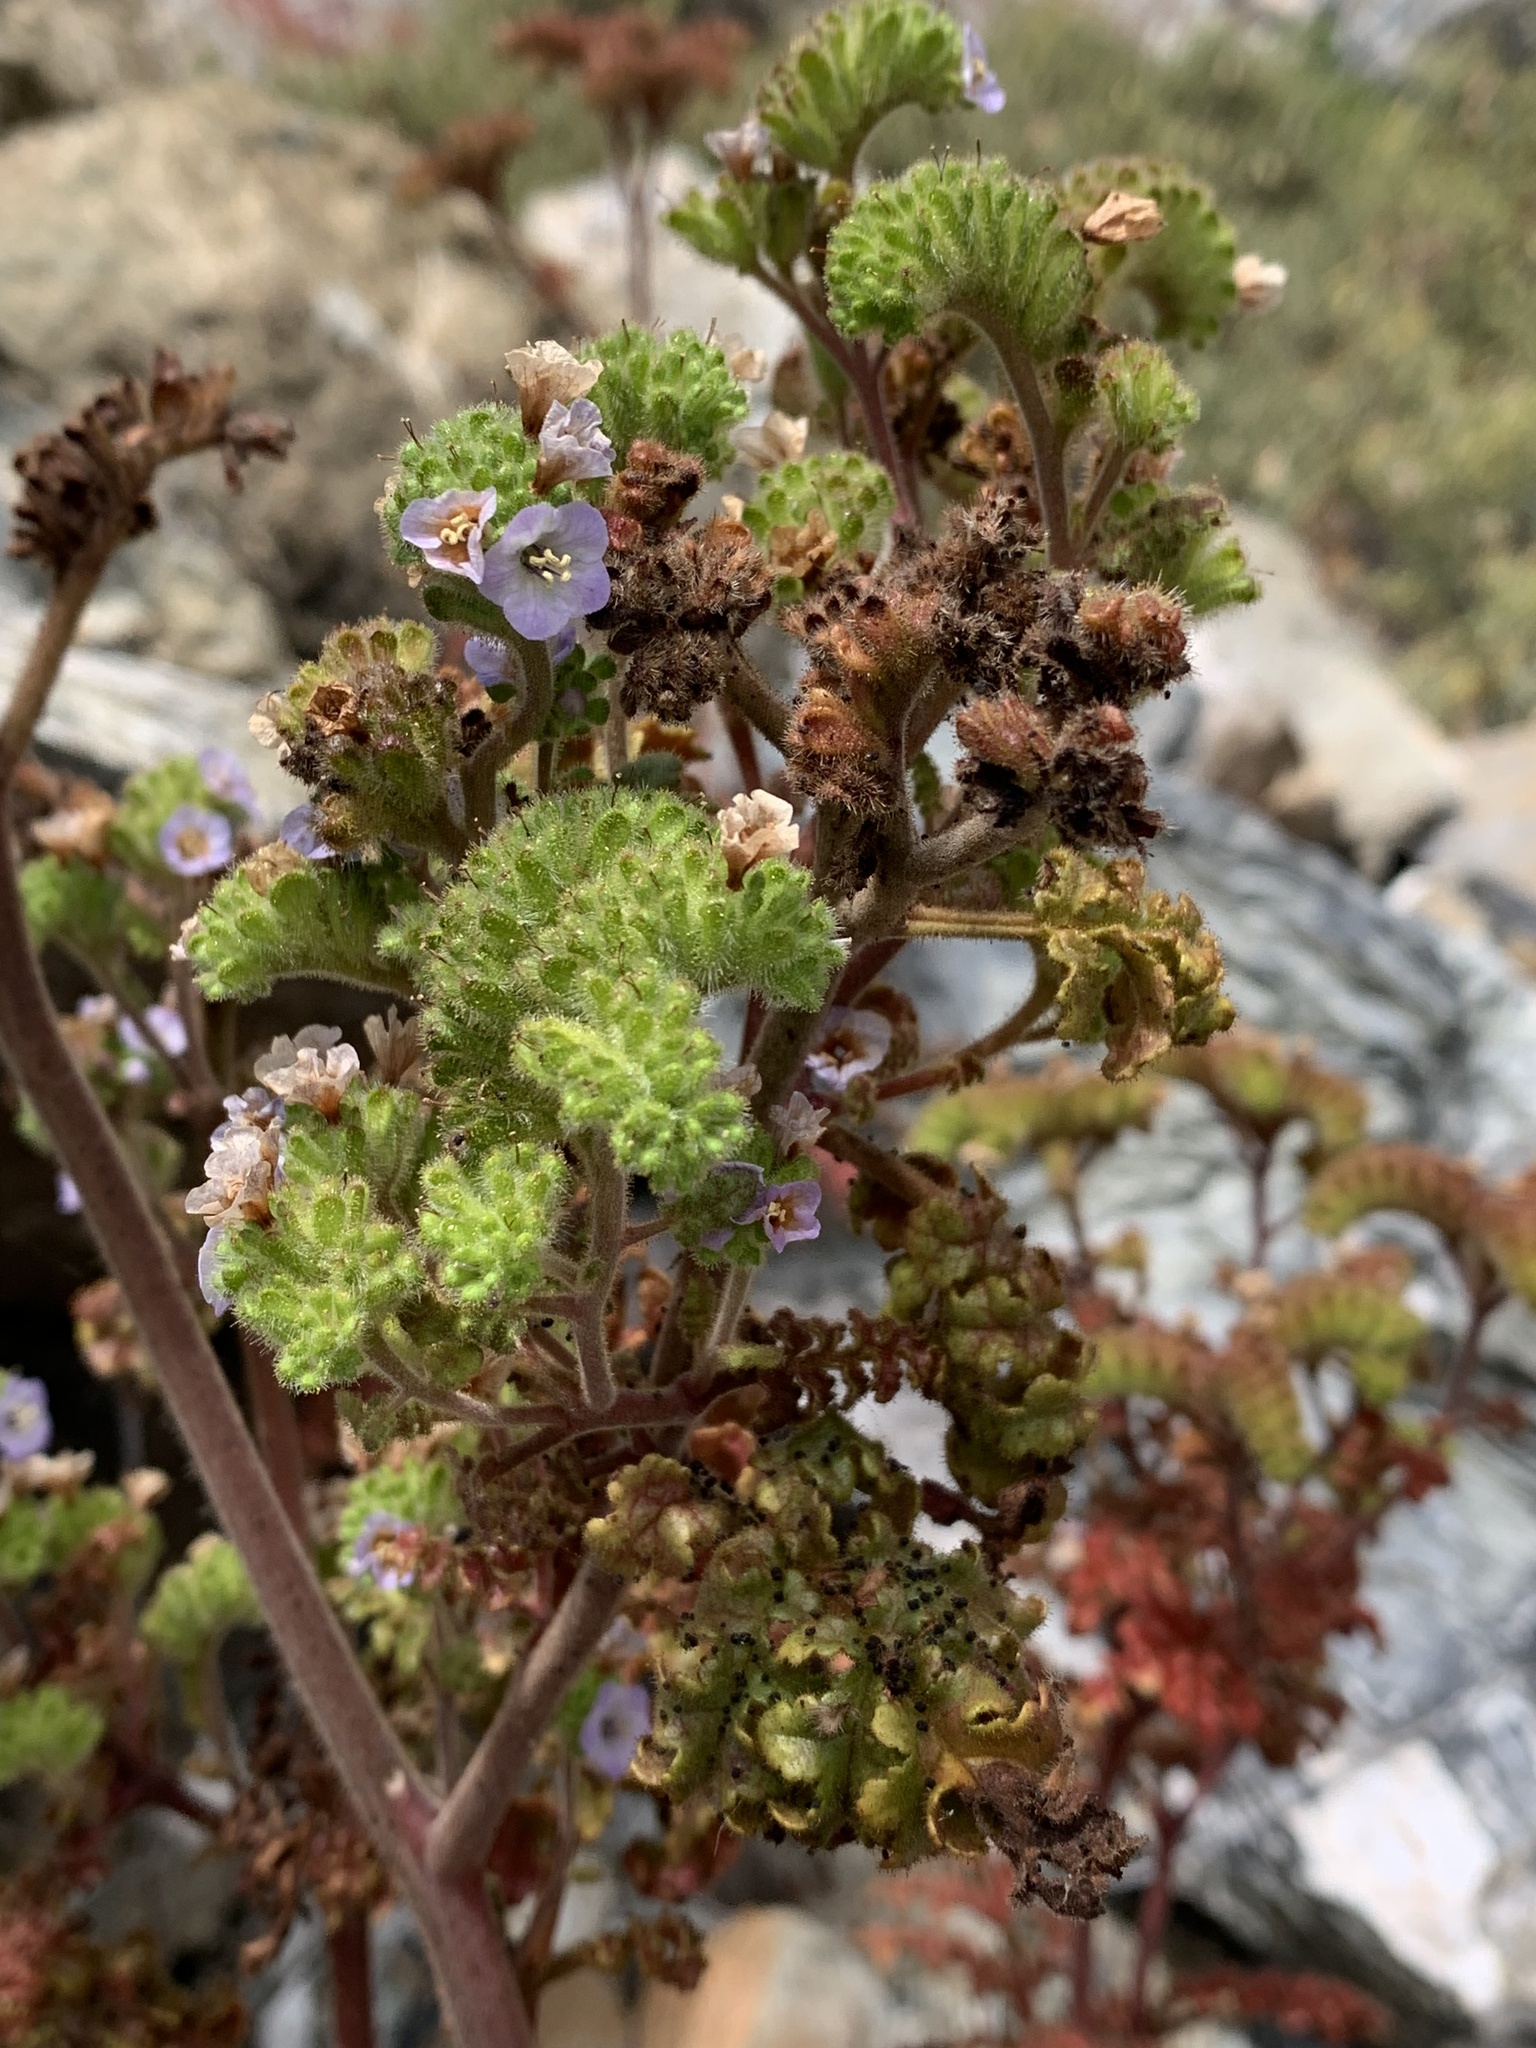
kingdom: Plantae
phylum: Tracheophyta
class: Magnoliopsida
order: Boraginales
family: Hydrophyllaceae
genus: Phacelia
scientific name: Phacelia lyonii
